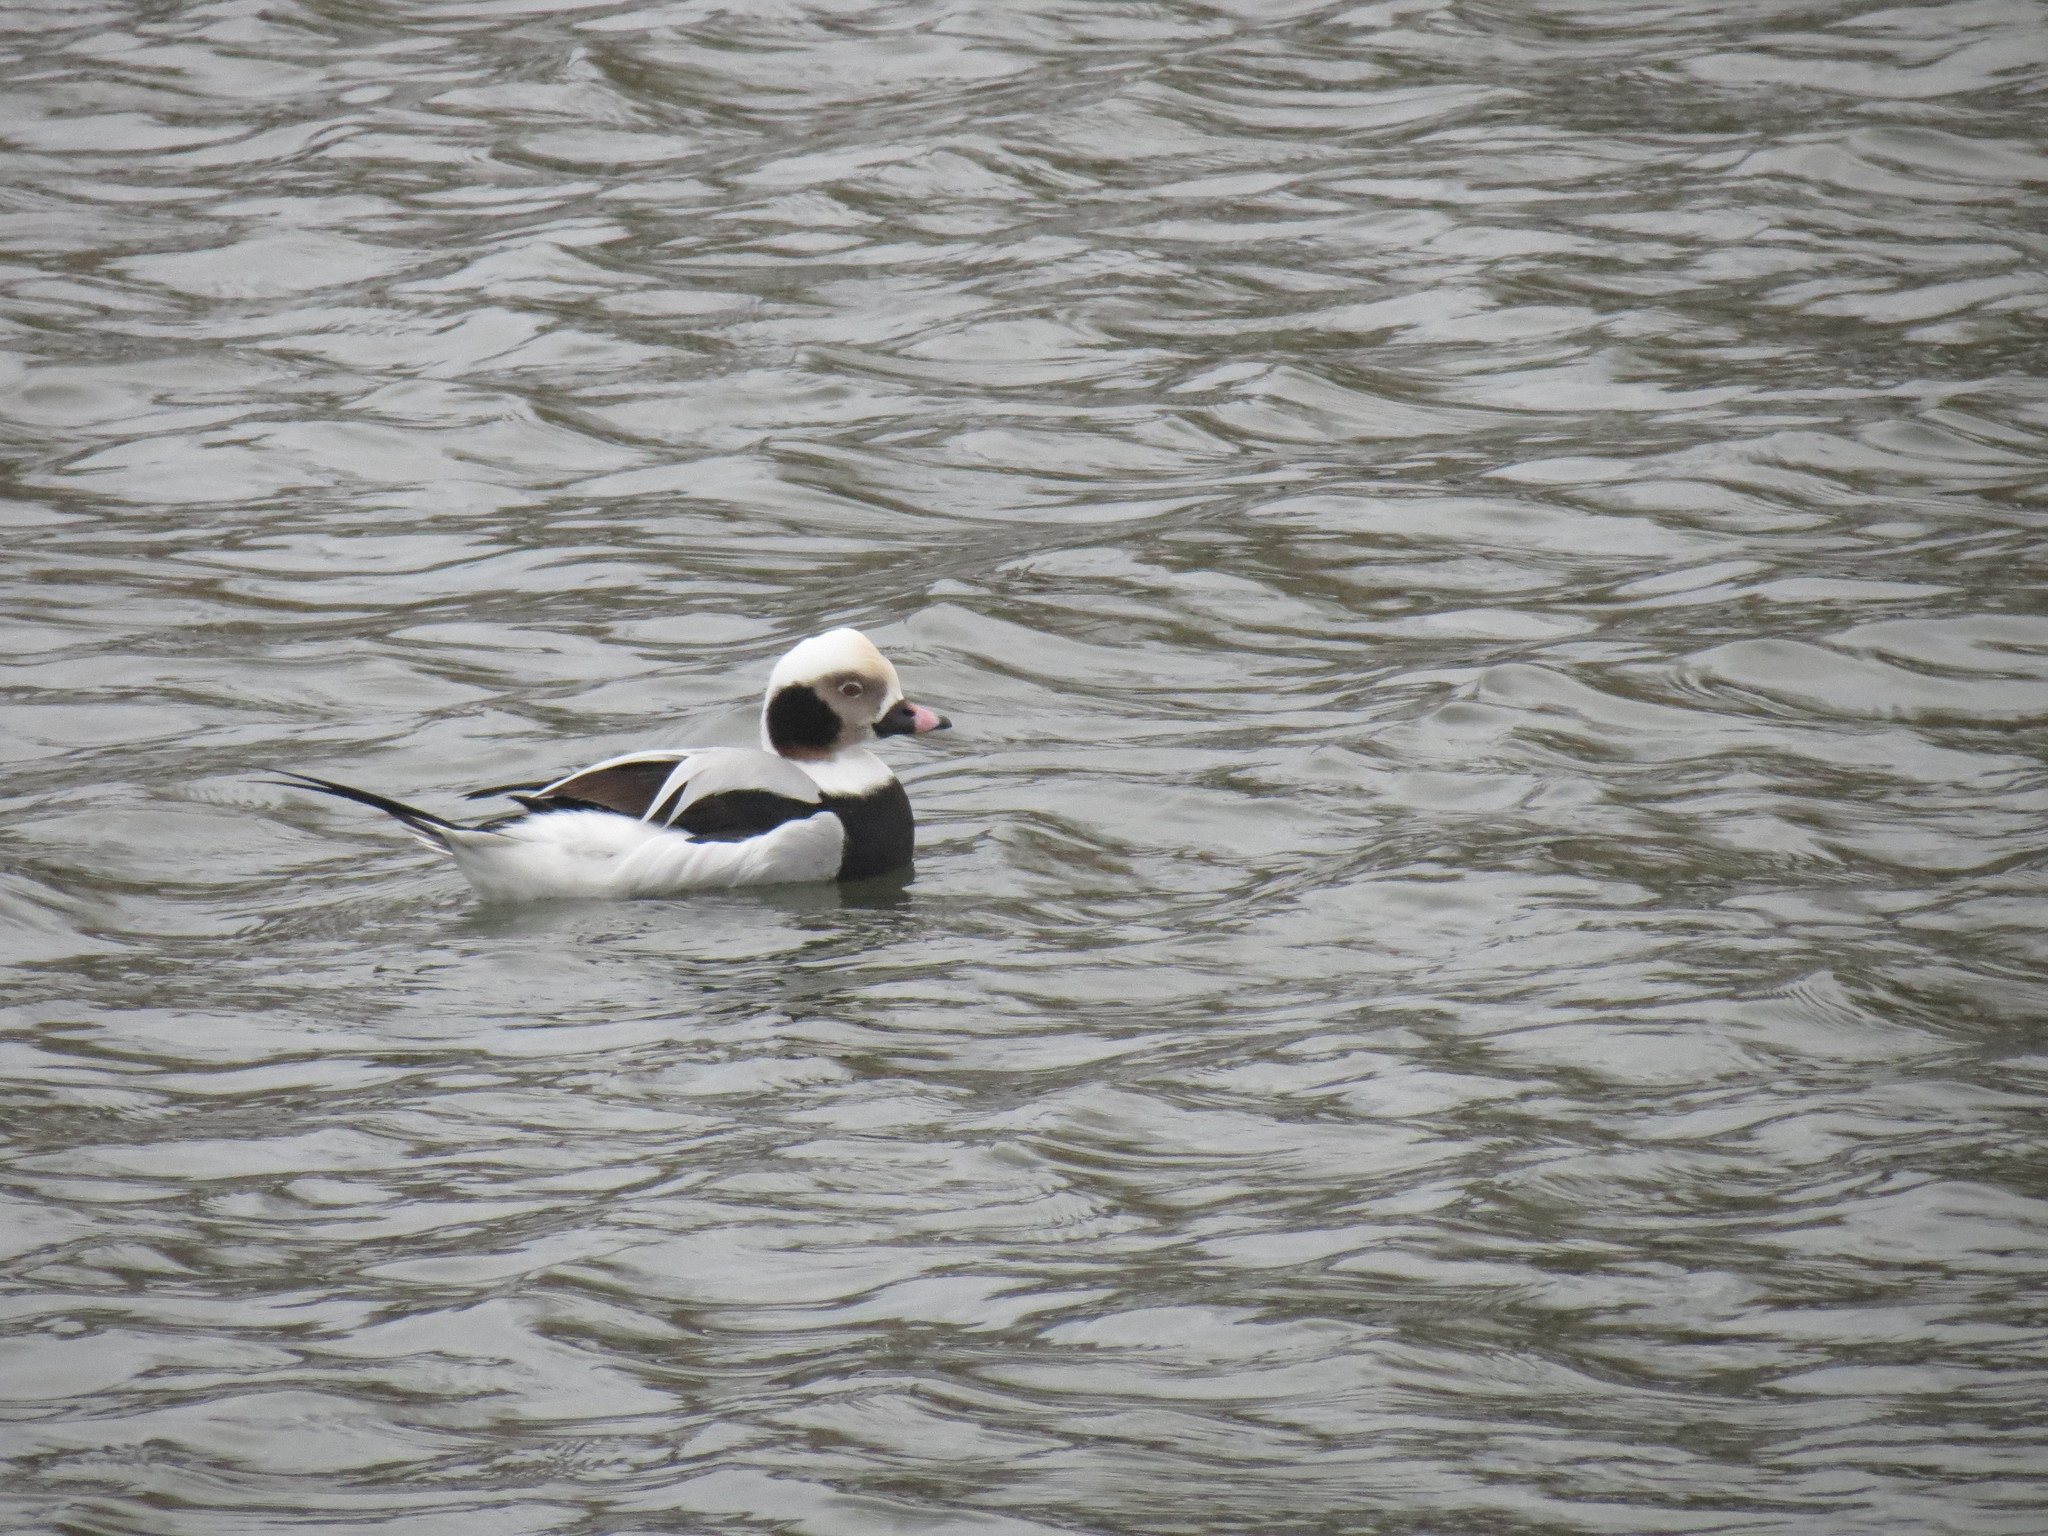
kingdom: Animalia
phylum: Chordata
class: Aves
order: Anseriformes
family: Anatidae
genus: Clangula
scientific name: Clangula hyemalis
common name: Long-tailed duck
